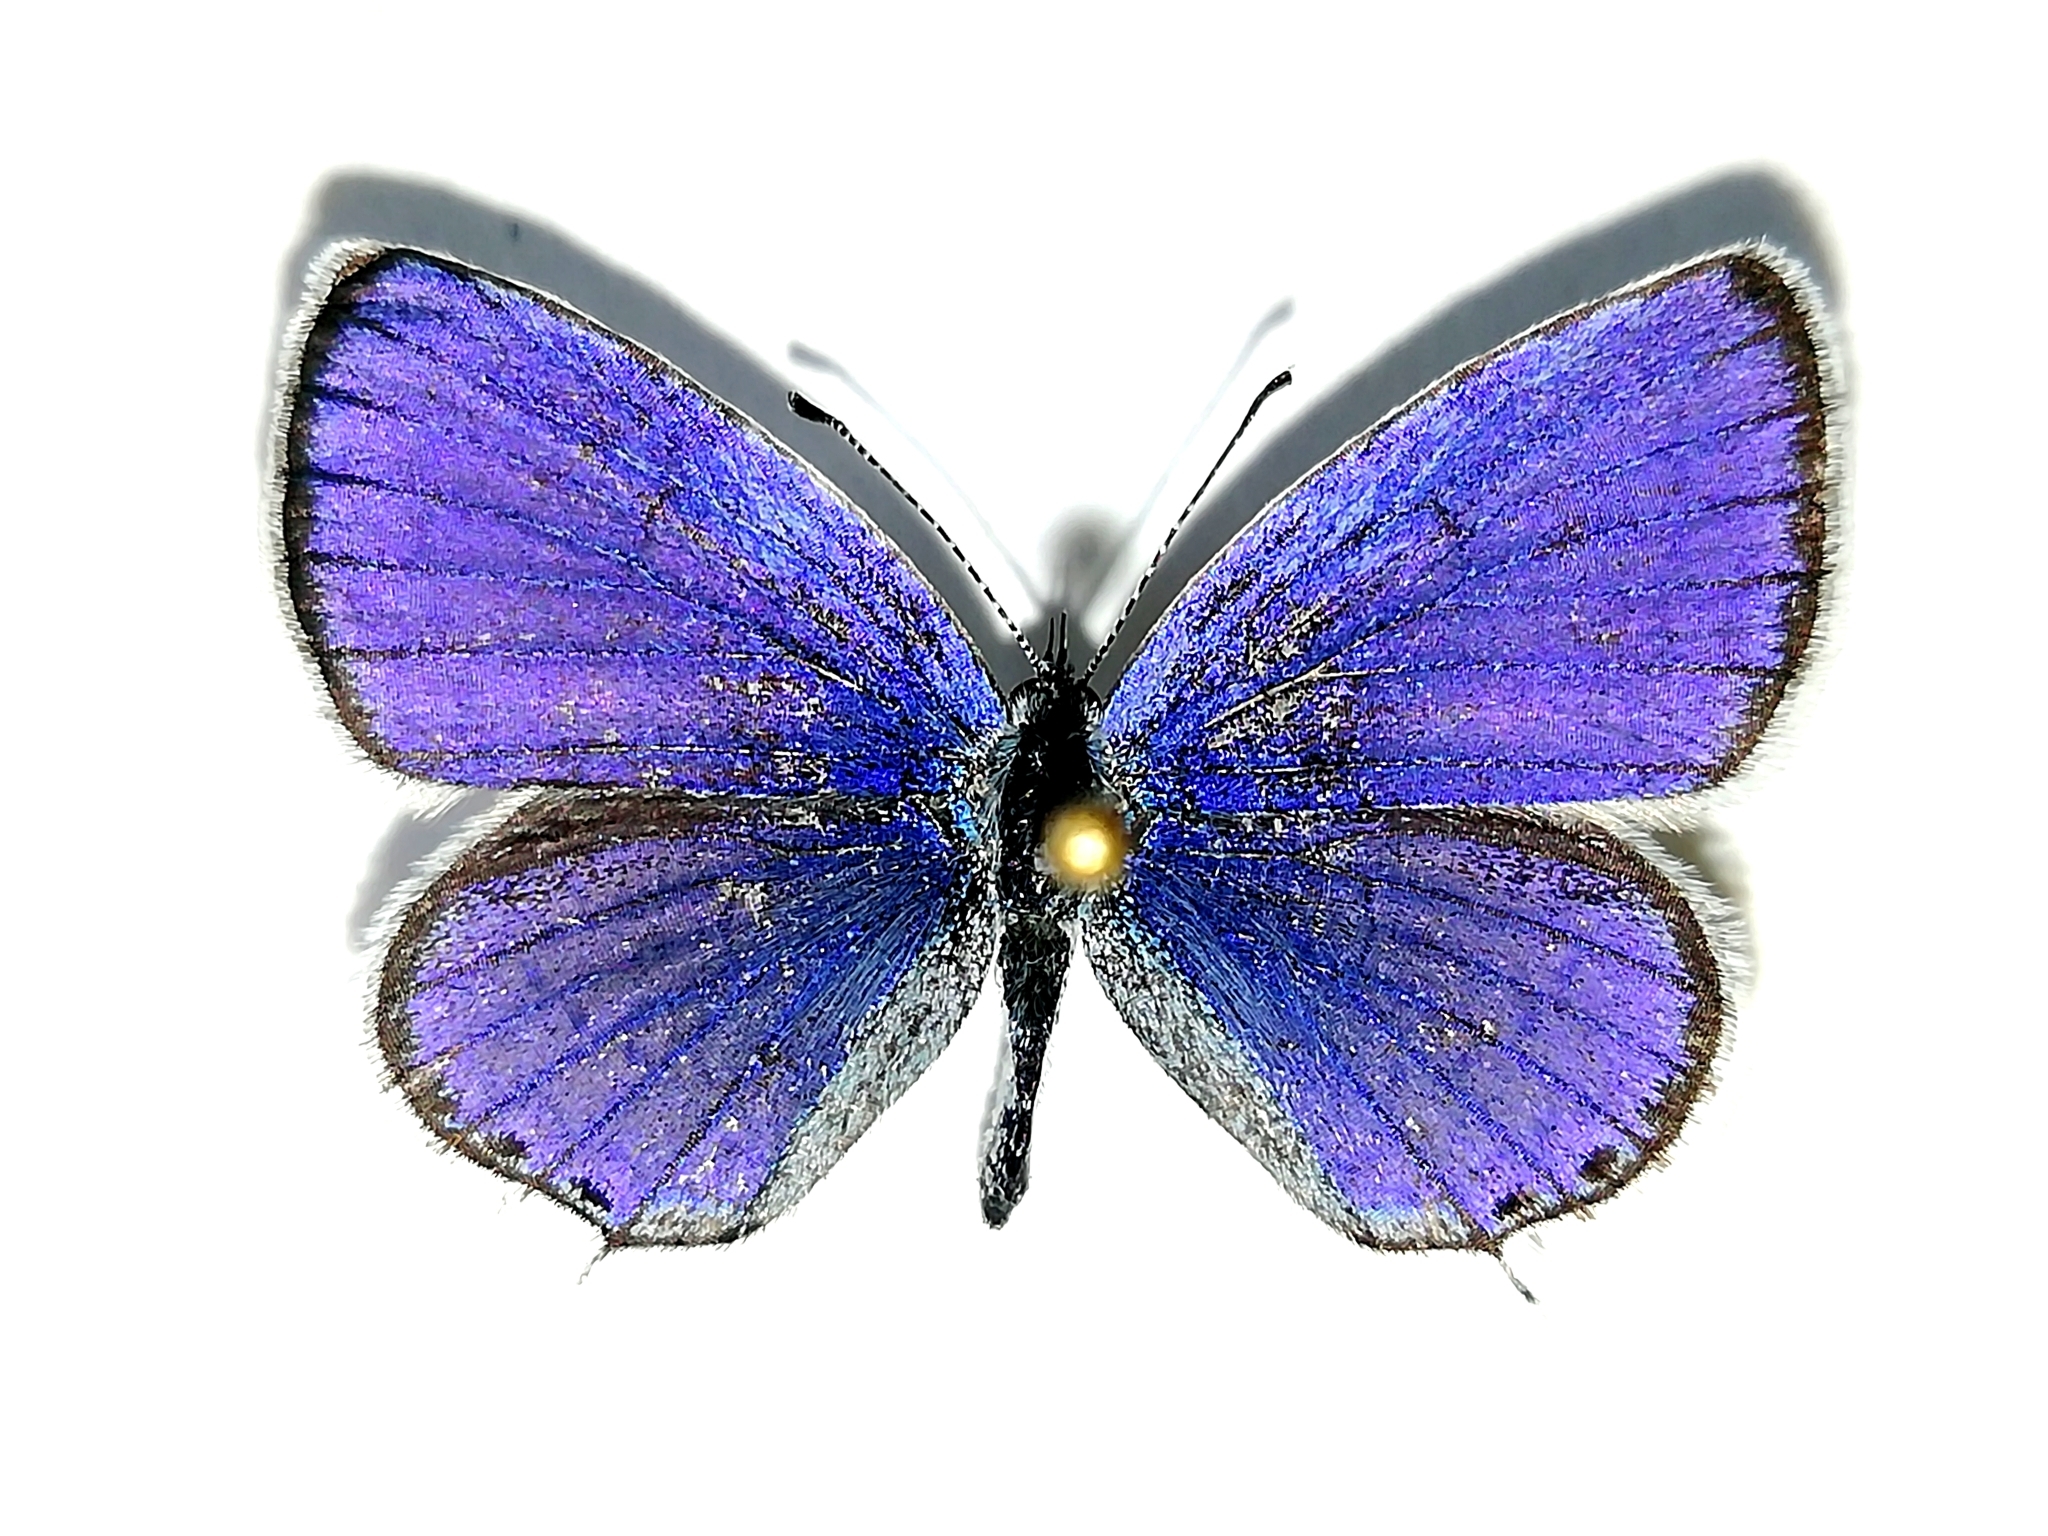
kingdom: Animalia
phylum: Arthropoda
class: Insecta
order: Lepidoptera
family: Lycaenidae
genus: Elkalyce
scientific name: Elkalyce argiades
